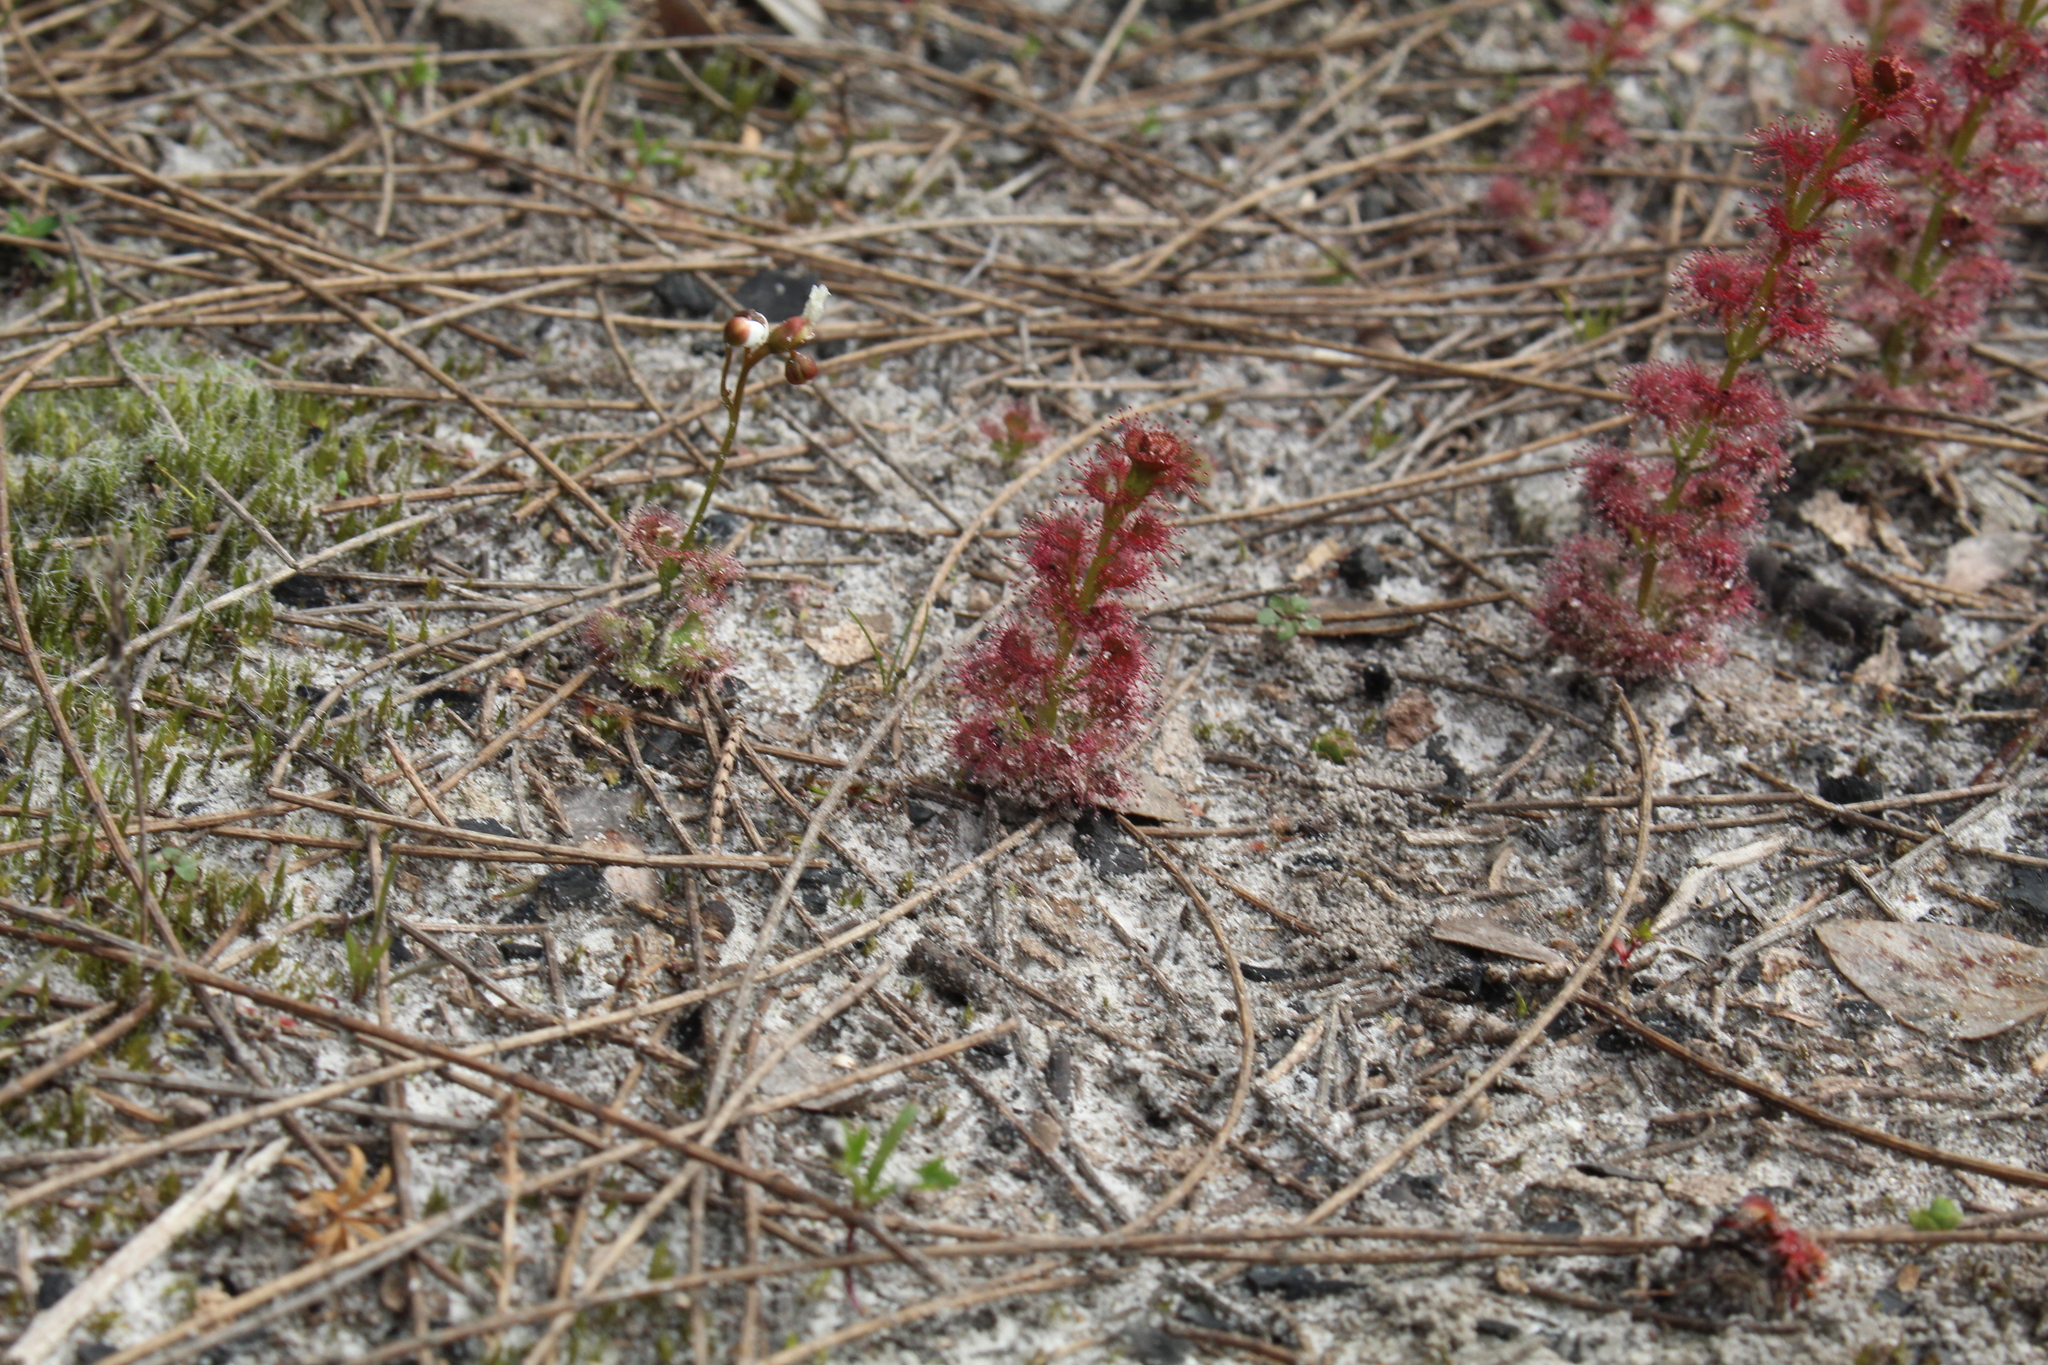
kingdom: Plantae
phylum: Tracheophyta
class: Magnoliopsida
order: Caryophyllales
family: Droseraceae
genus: Drosera
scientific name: Drosera platypoda
